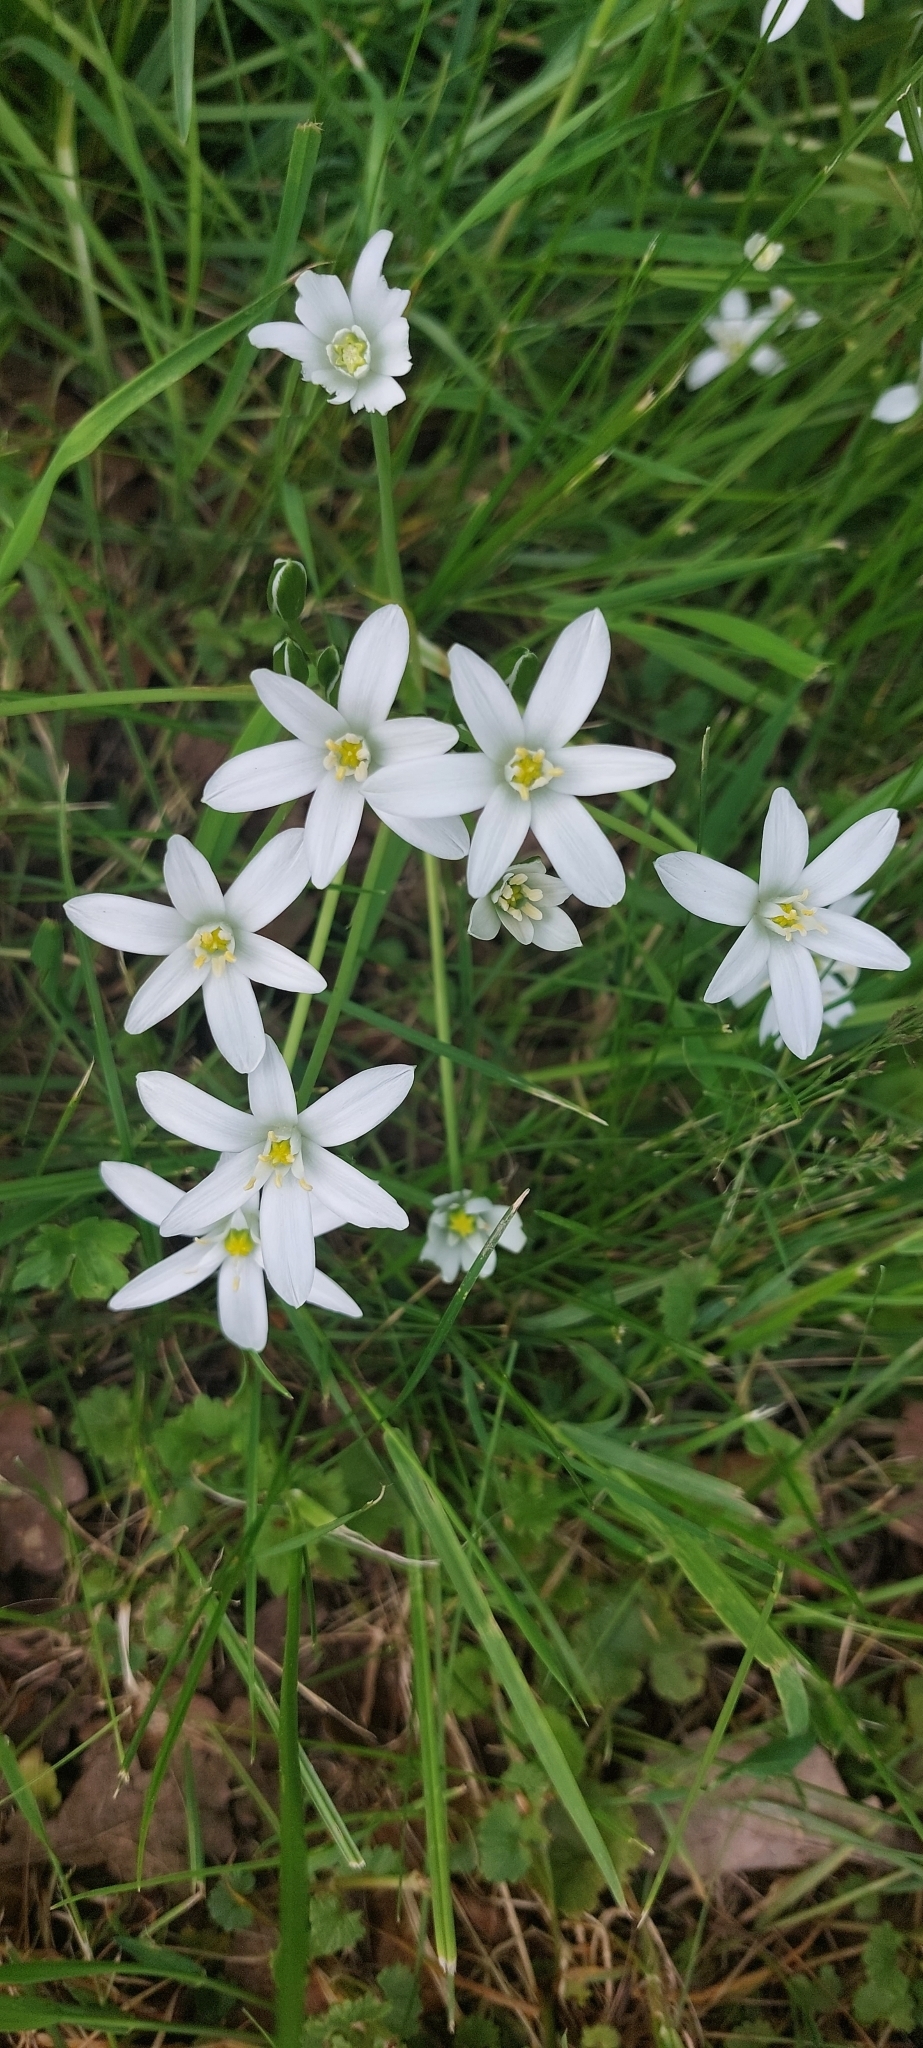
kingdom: Plantae
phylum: Tracheophyta
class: Liliopsida
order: Asparagales
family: Asparagaceae
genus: Ornithogalum
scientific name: Ornithogalum umbellatum
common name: Garden star-of-bethlehem
